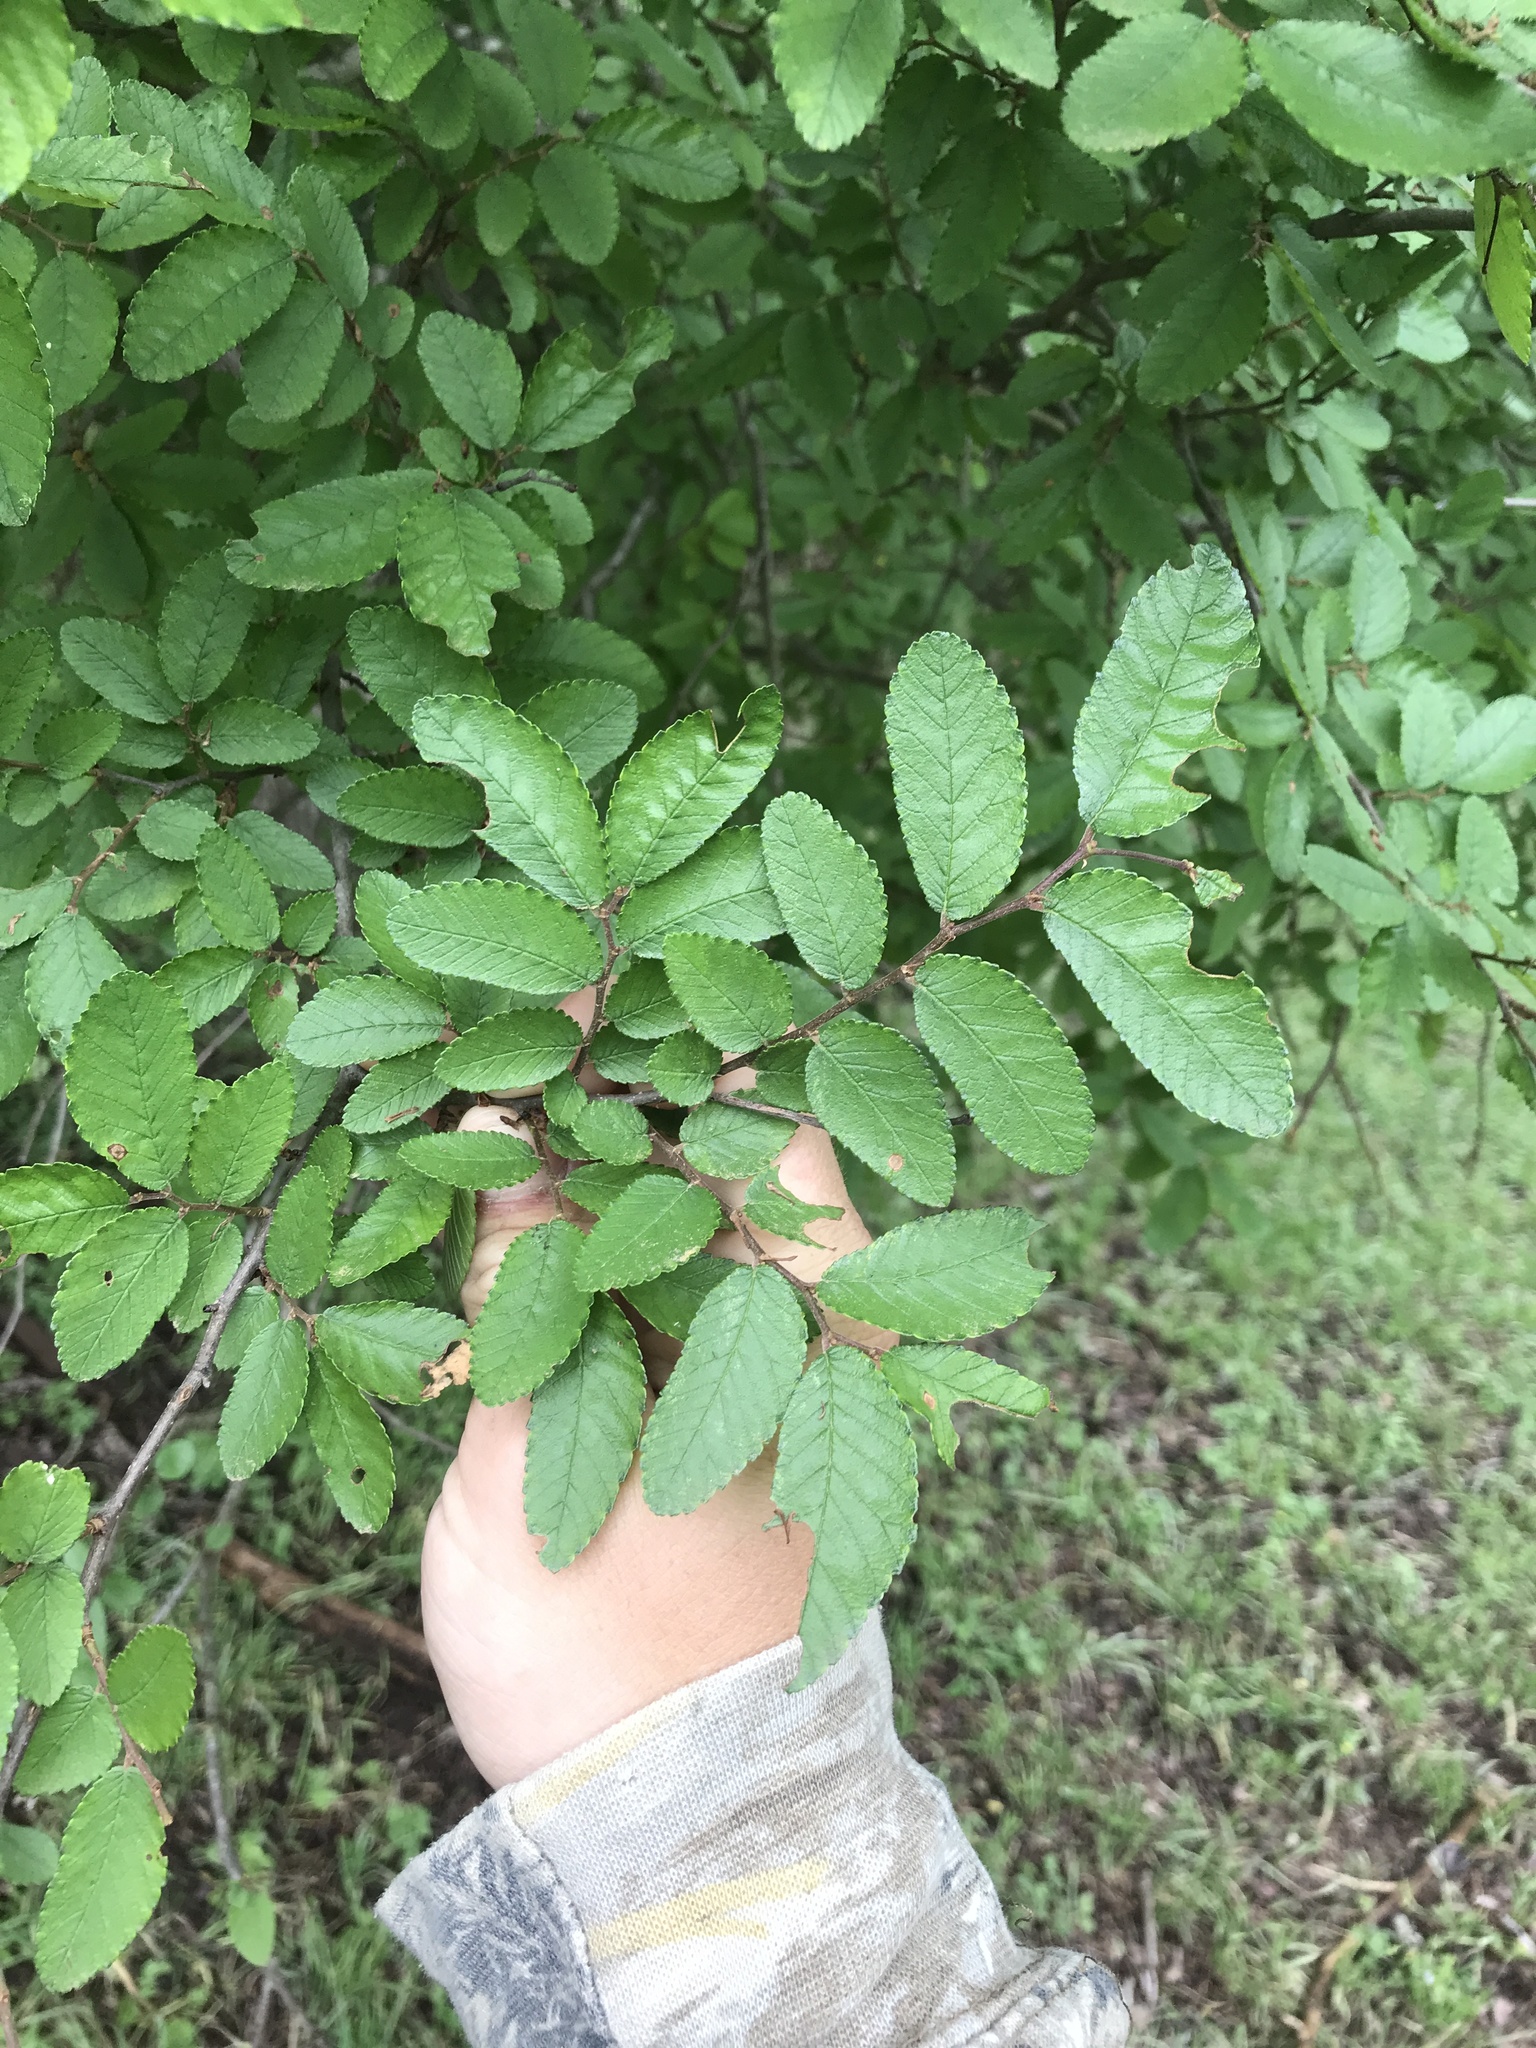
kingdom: Plantae
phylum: Tracheophyta
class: Magnoliopsida
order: Rosales
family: Ulmaceae
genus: Ulmus
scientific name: Ulmus crassifolia
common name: Basket elm
